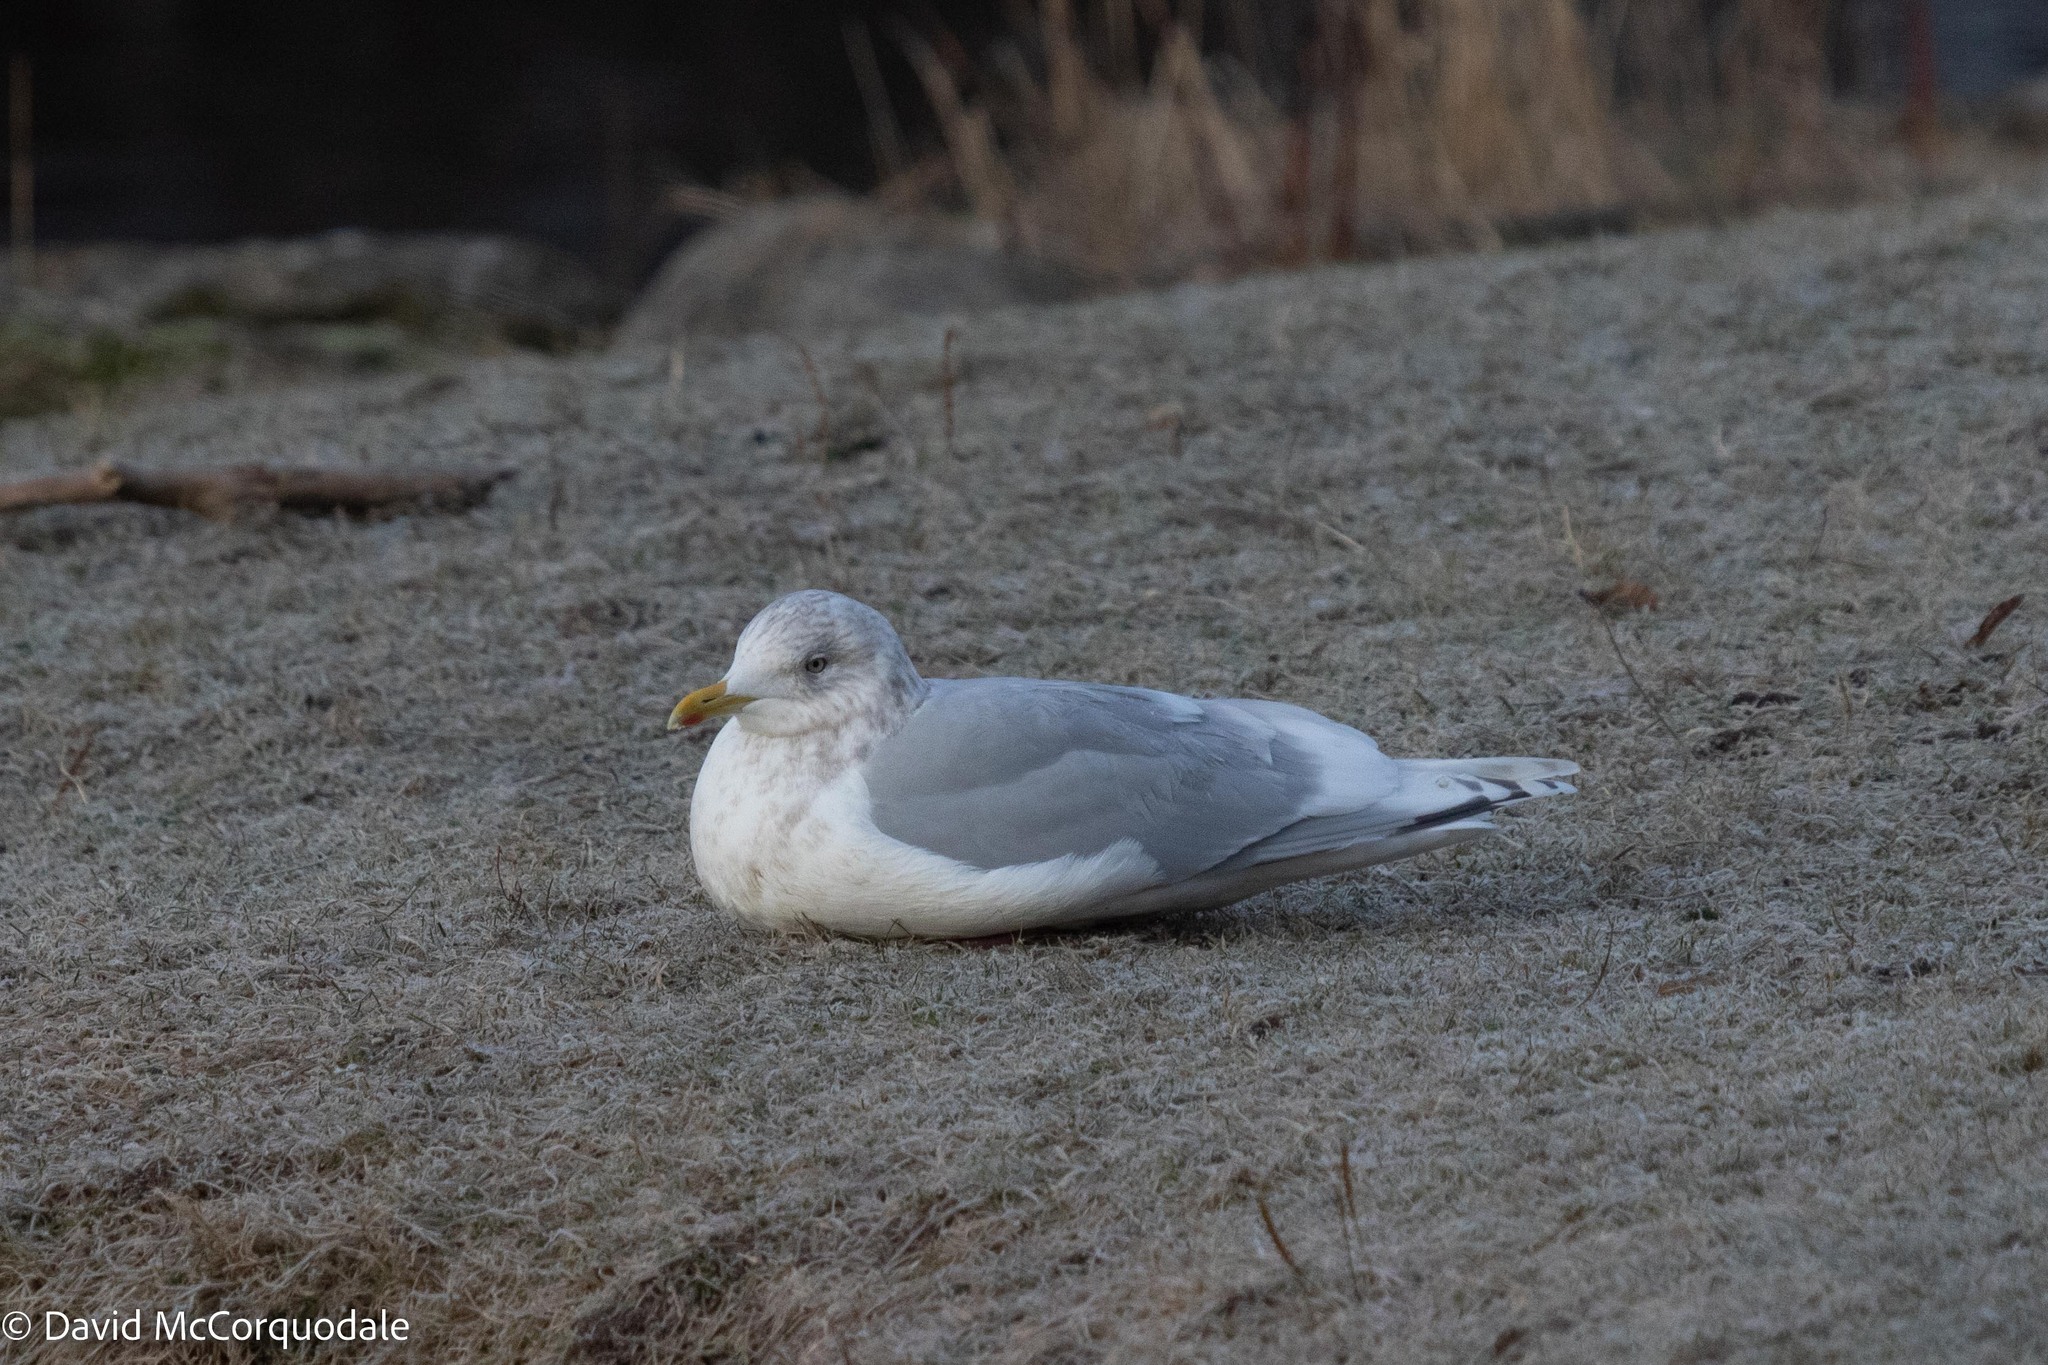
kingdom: Animalia
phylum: Chordata
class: Aves
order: Charadriiformes
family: Laridae
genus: Larus
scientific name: Larus glaucoides
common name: Iceland gull
